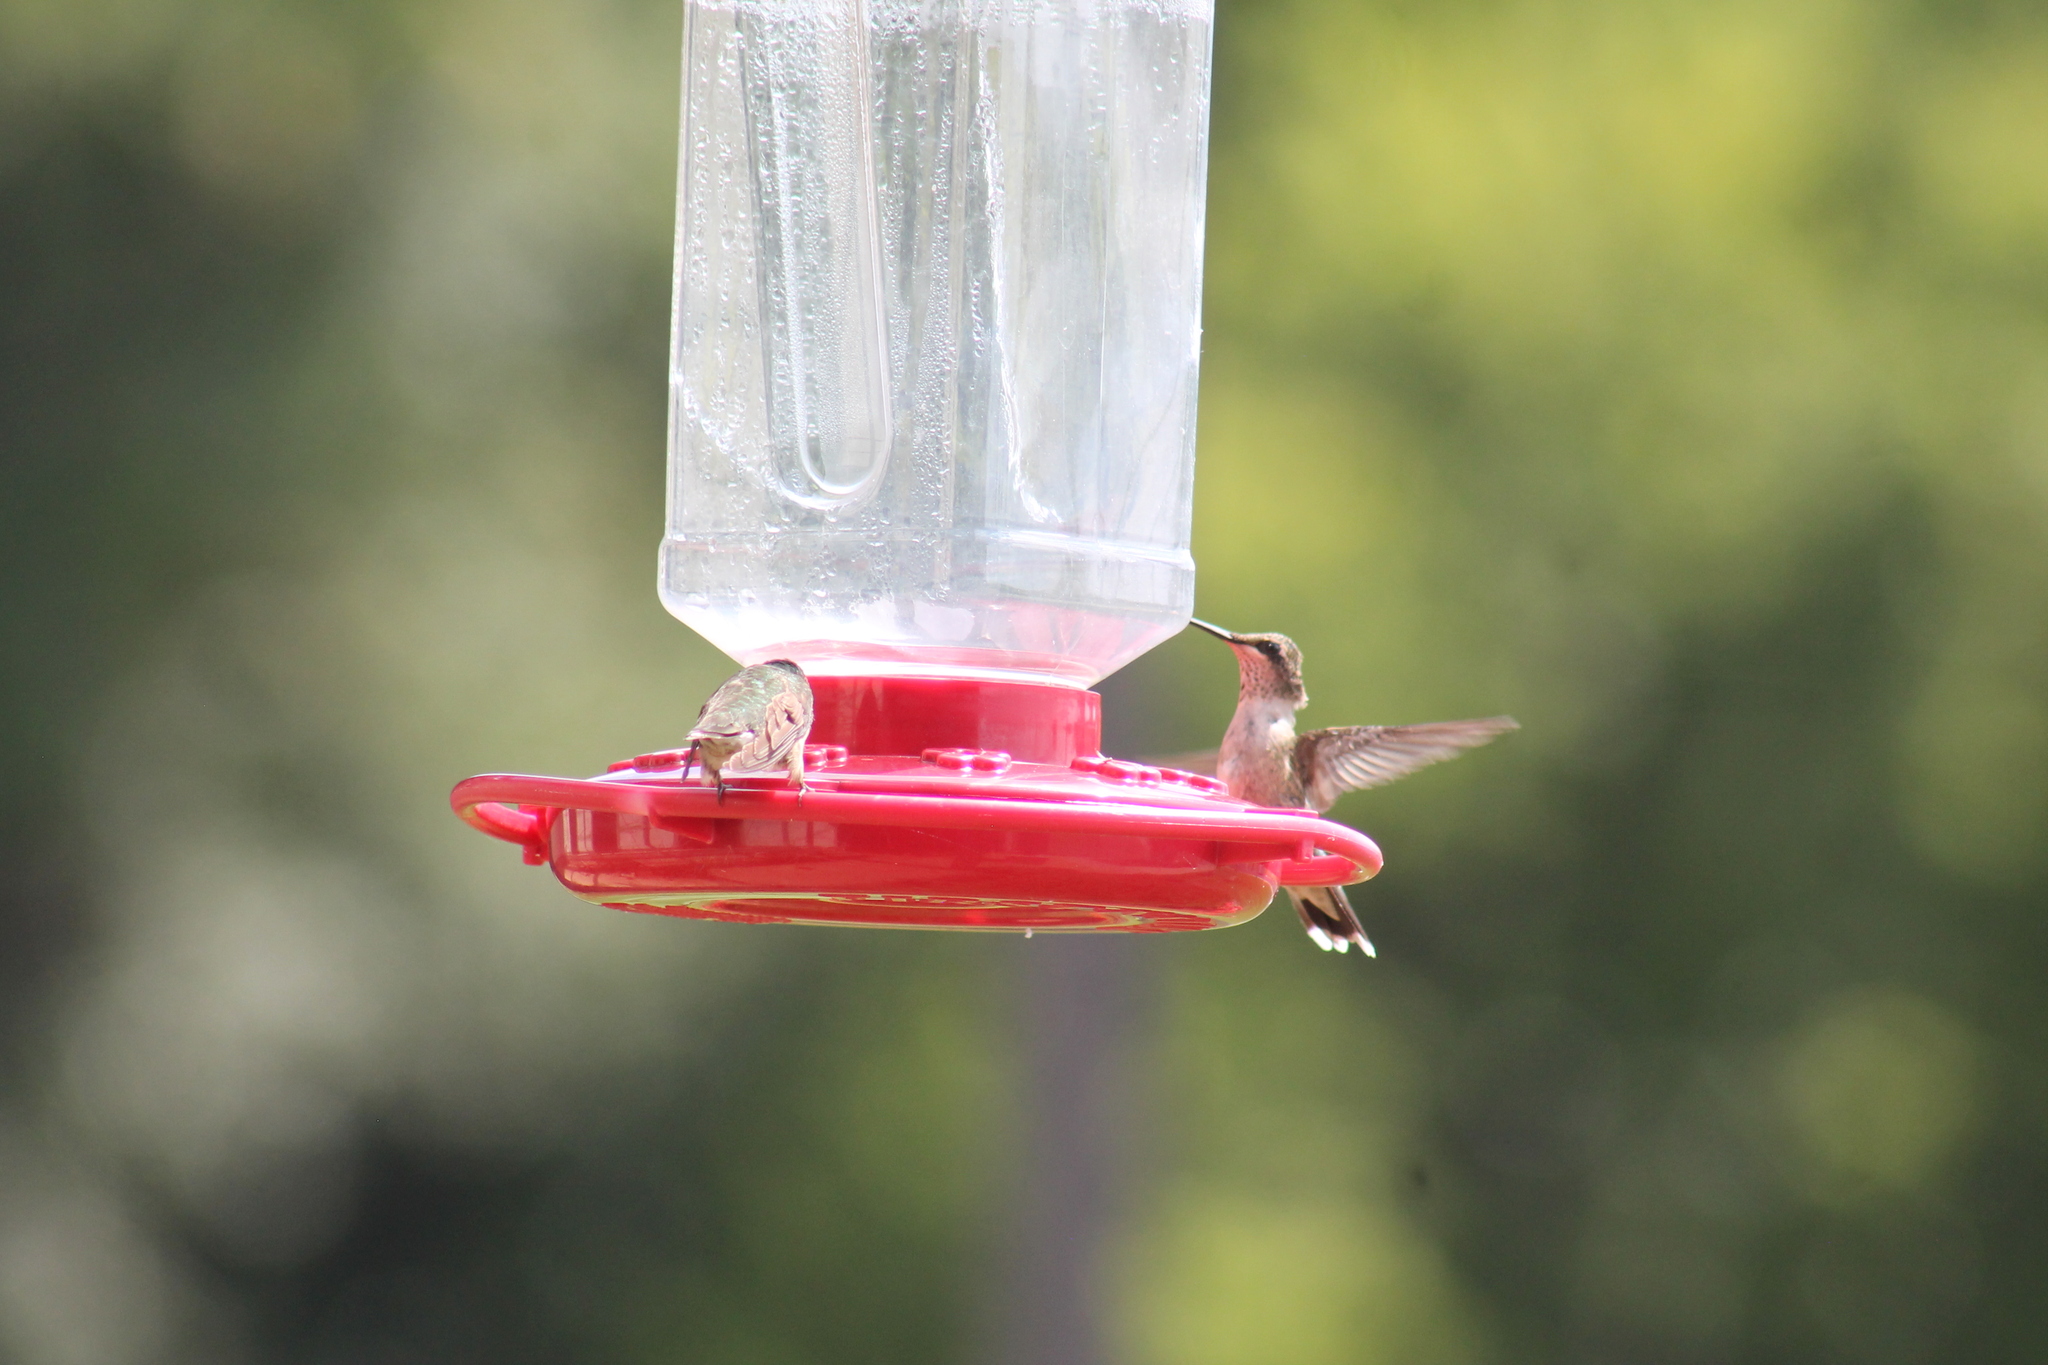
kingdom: Animalia
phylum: Chordata
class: Aves
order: Apodiformes
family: Trochilidae
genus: Archilochus
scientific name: Archilochus colubris
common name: Ruby-throated hummingbird
